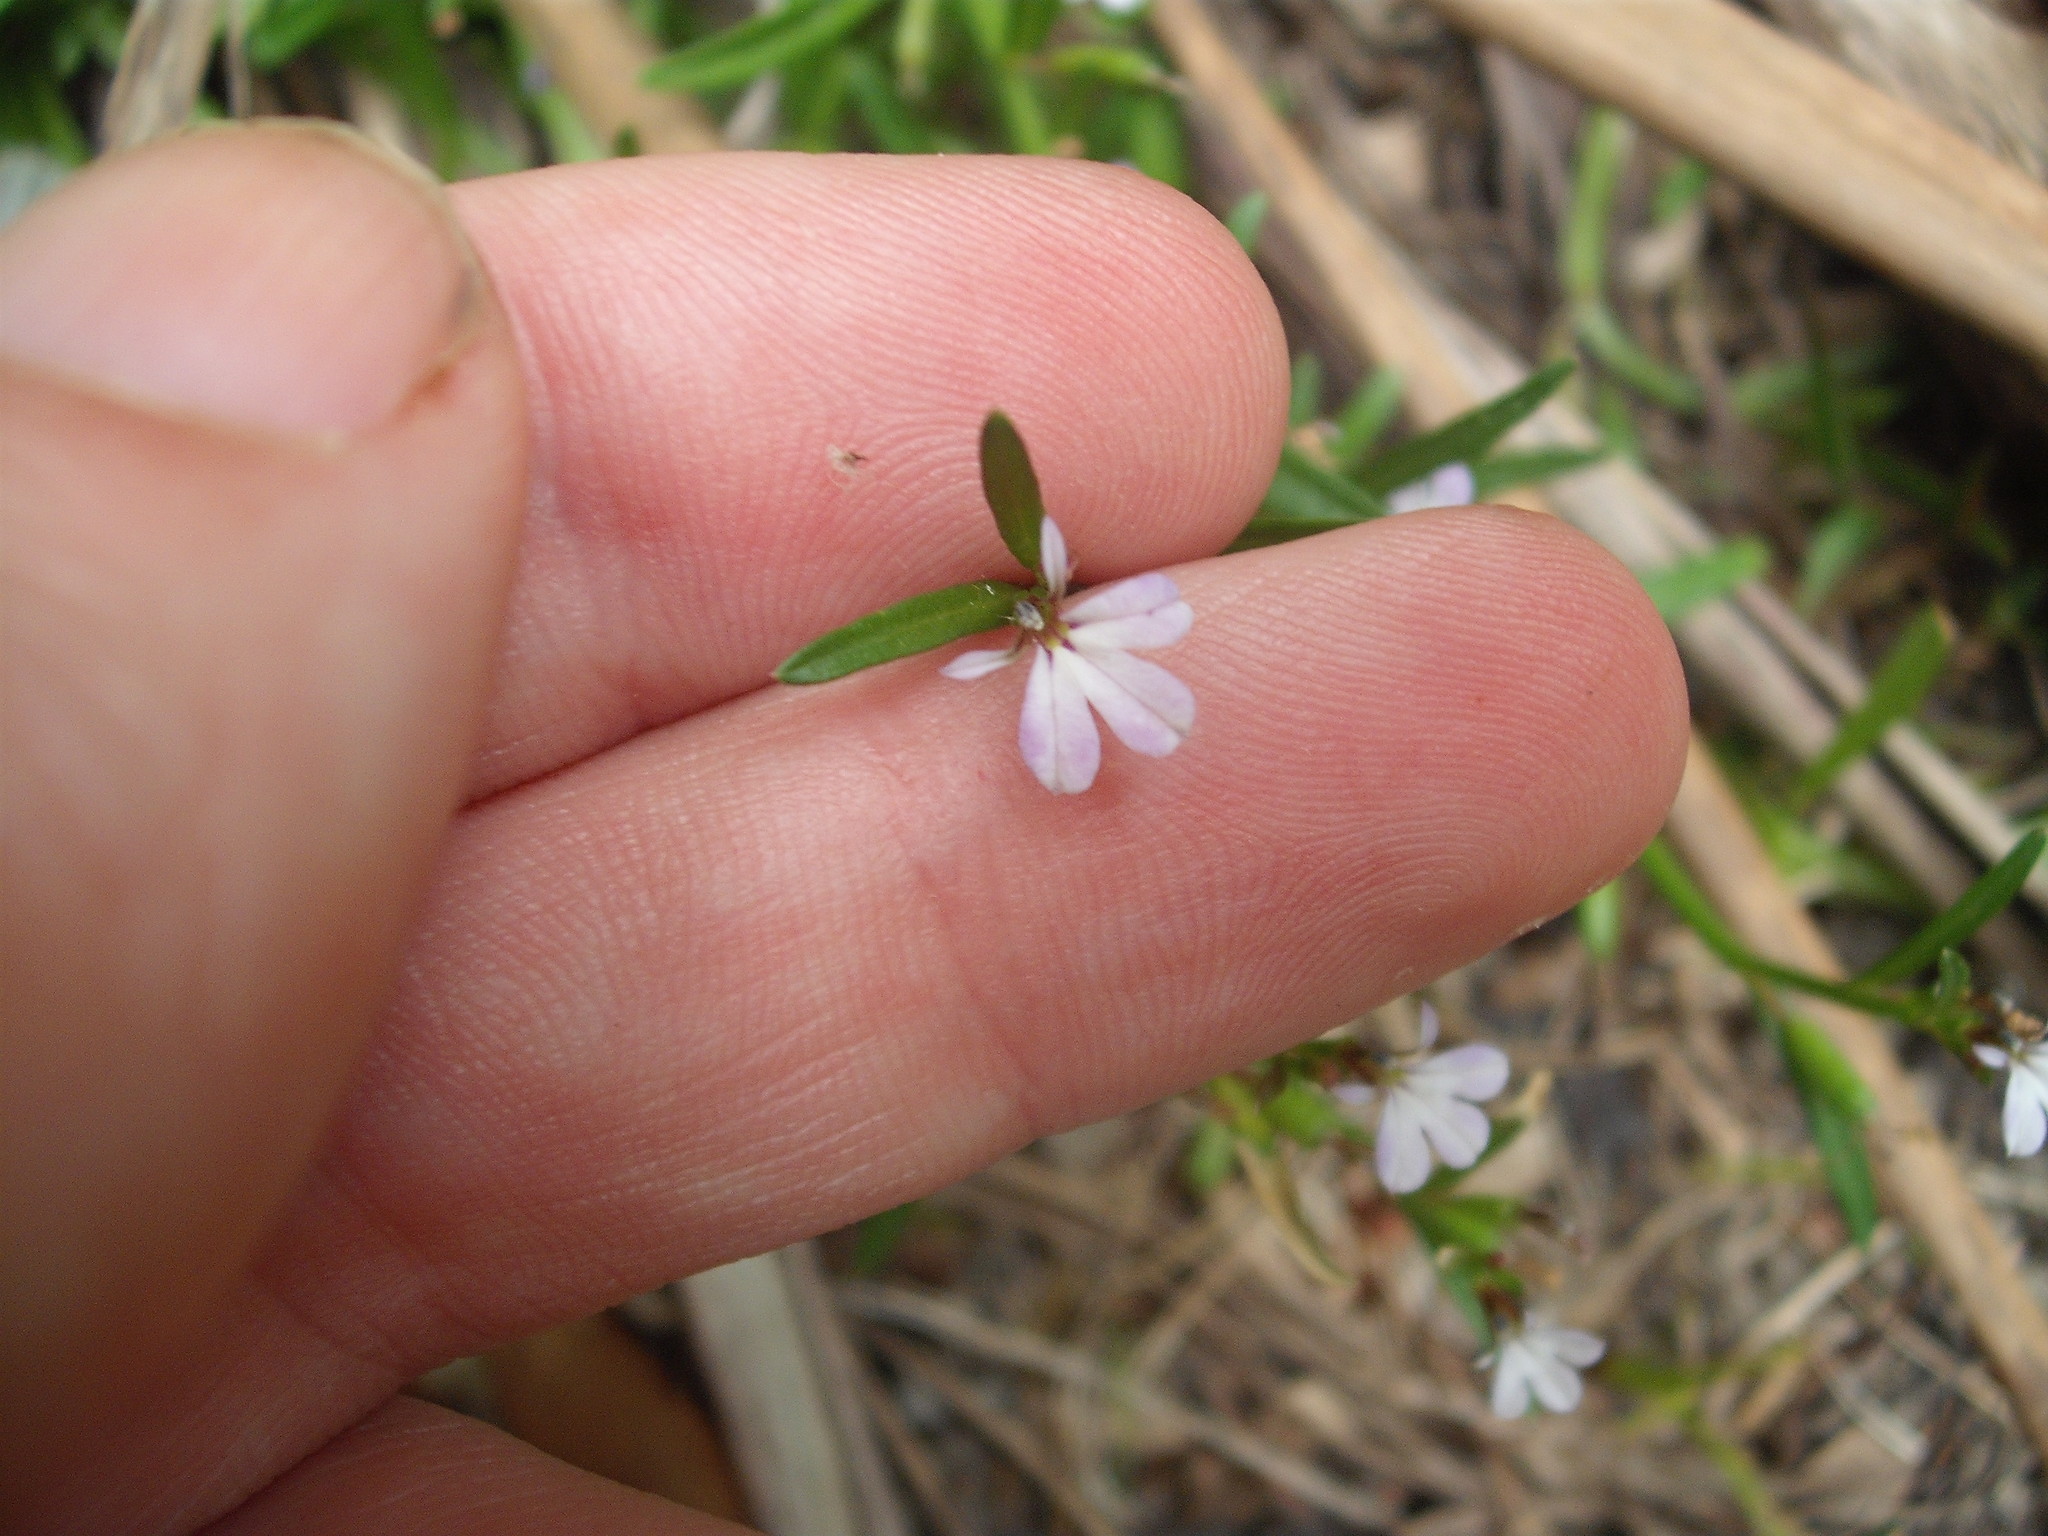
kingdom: Plantae
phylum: Tracheophyta
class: Magnoliopsida
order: Asterales
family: Campanulaceae
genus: Lobelia
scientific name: Lobelia anceps
